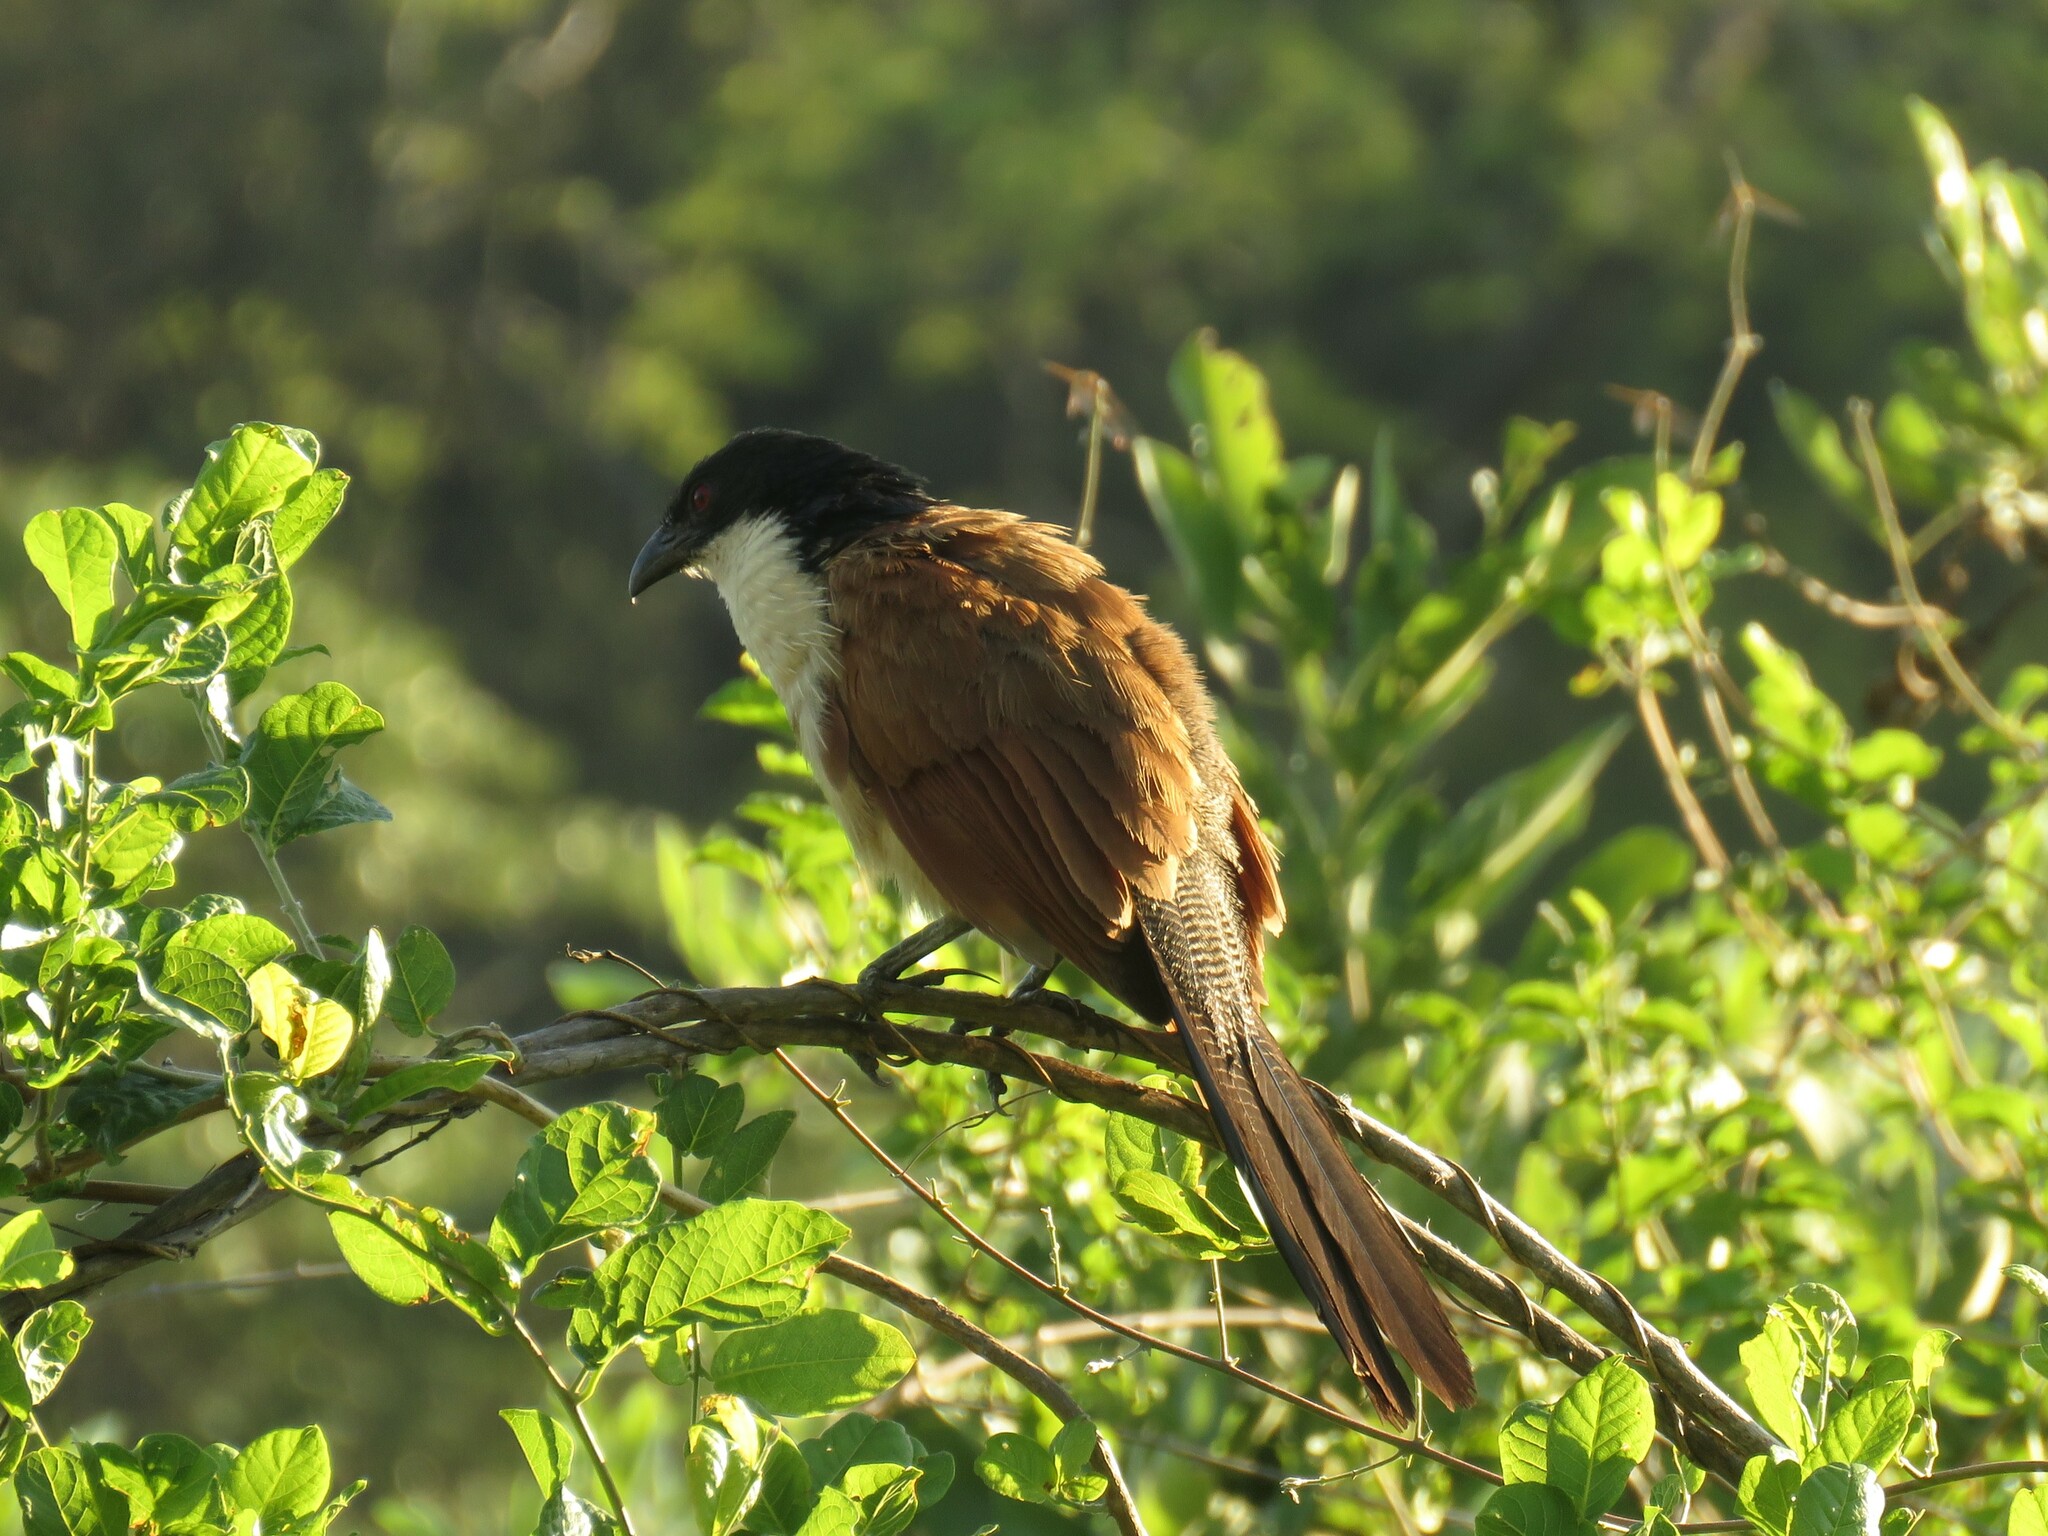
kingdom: Animalia
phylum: Chordata
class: Aves
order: Cuculiformes
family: Cuculidae
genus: Centropus
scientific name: Centropus superciliosus
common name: White-browed coucal
